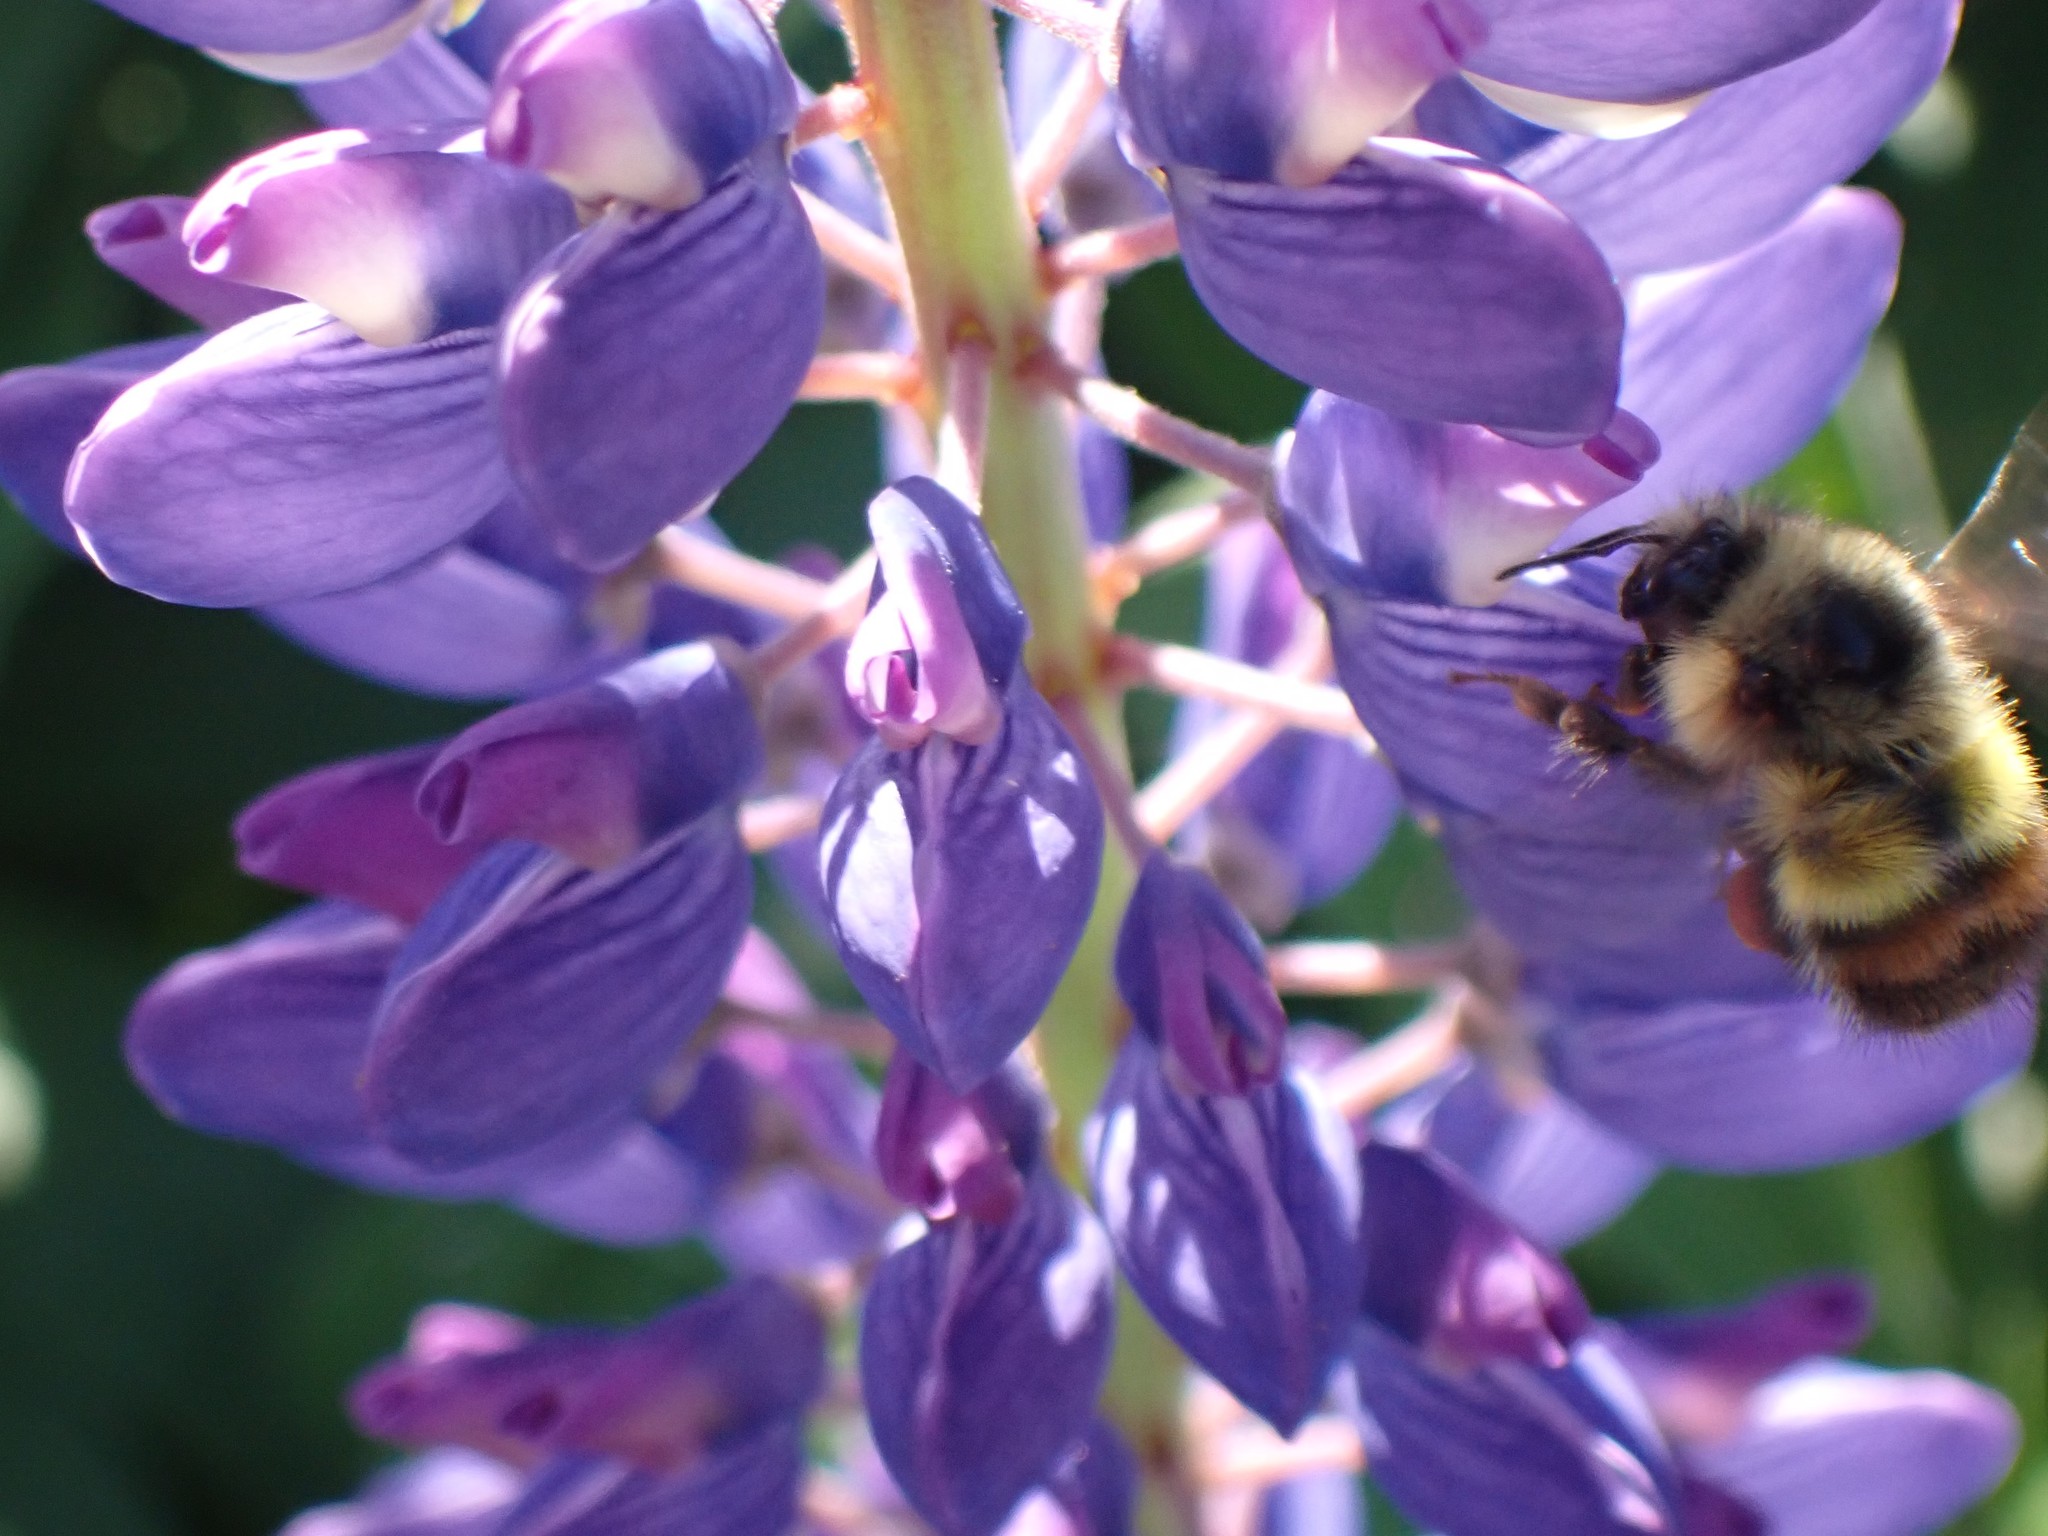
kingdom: Animalia
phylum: Arthropoda
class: Insecta
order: Hymenoptera
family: Apidae
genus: Bombus
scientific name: Bombus flavifrons
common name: Yellow head bumble bee
